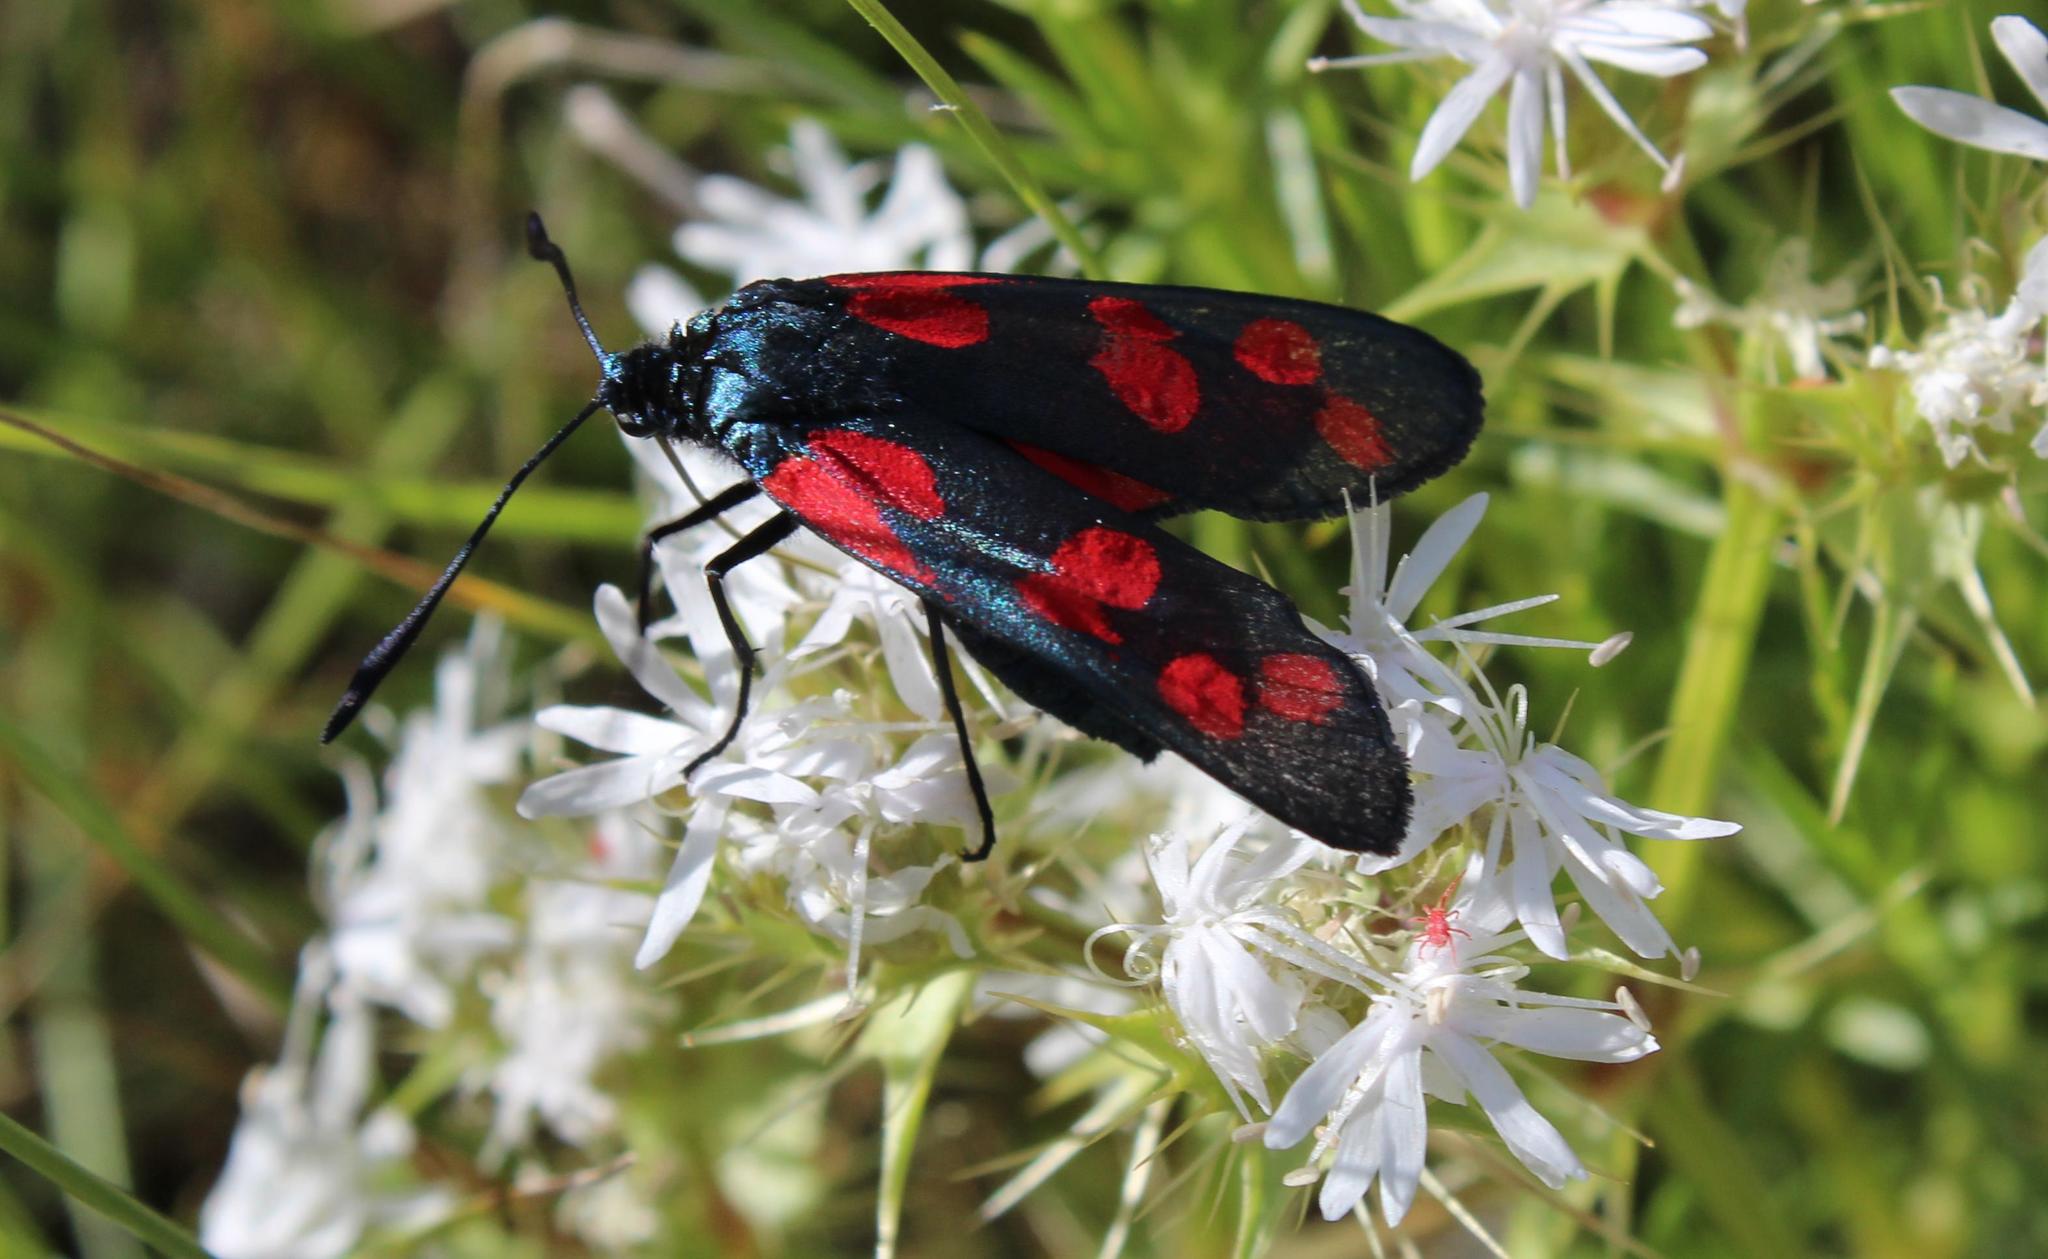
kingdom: Animalia
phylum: Arthropoda
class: Insecta
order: Lepidoptera
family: Zygaenidae
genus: Zygaena
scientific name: Zygaena filipendulae
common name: Six-spot burnet
